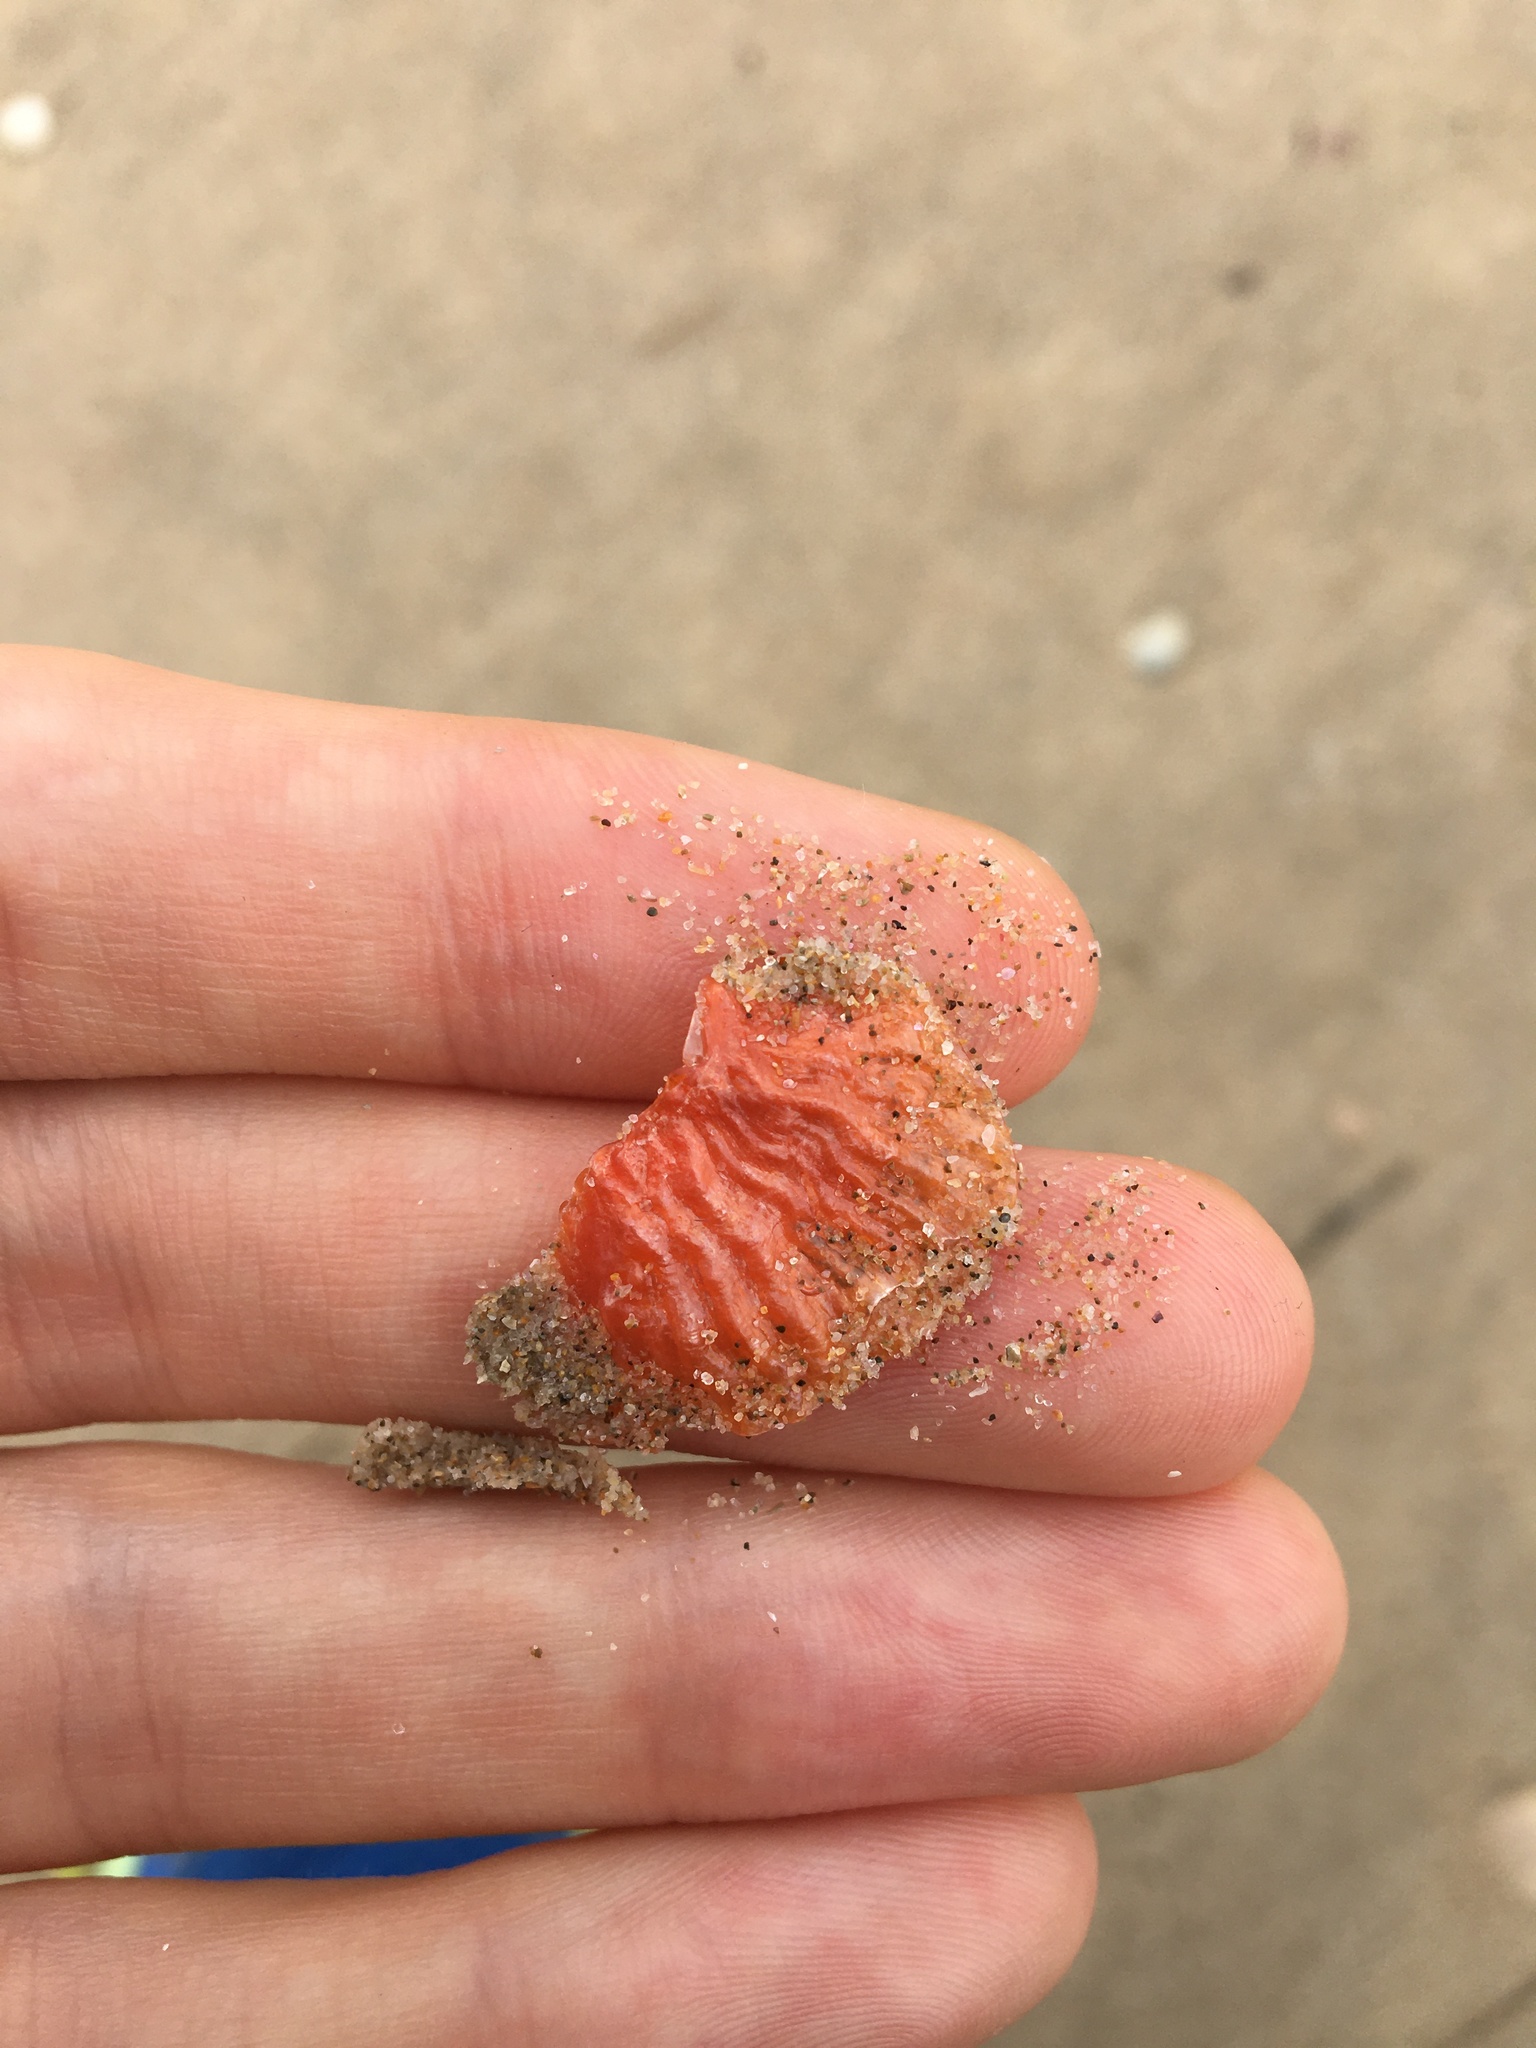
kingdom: Animalia
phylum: Mollusca
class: Bivalvia
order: Pectinida
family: Anomiidae
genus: Anomia
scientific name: Anomia trigonopsis
